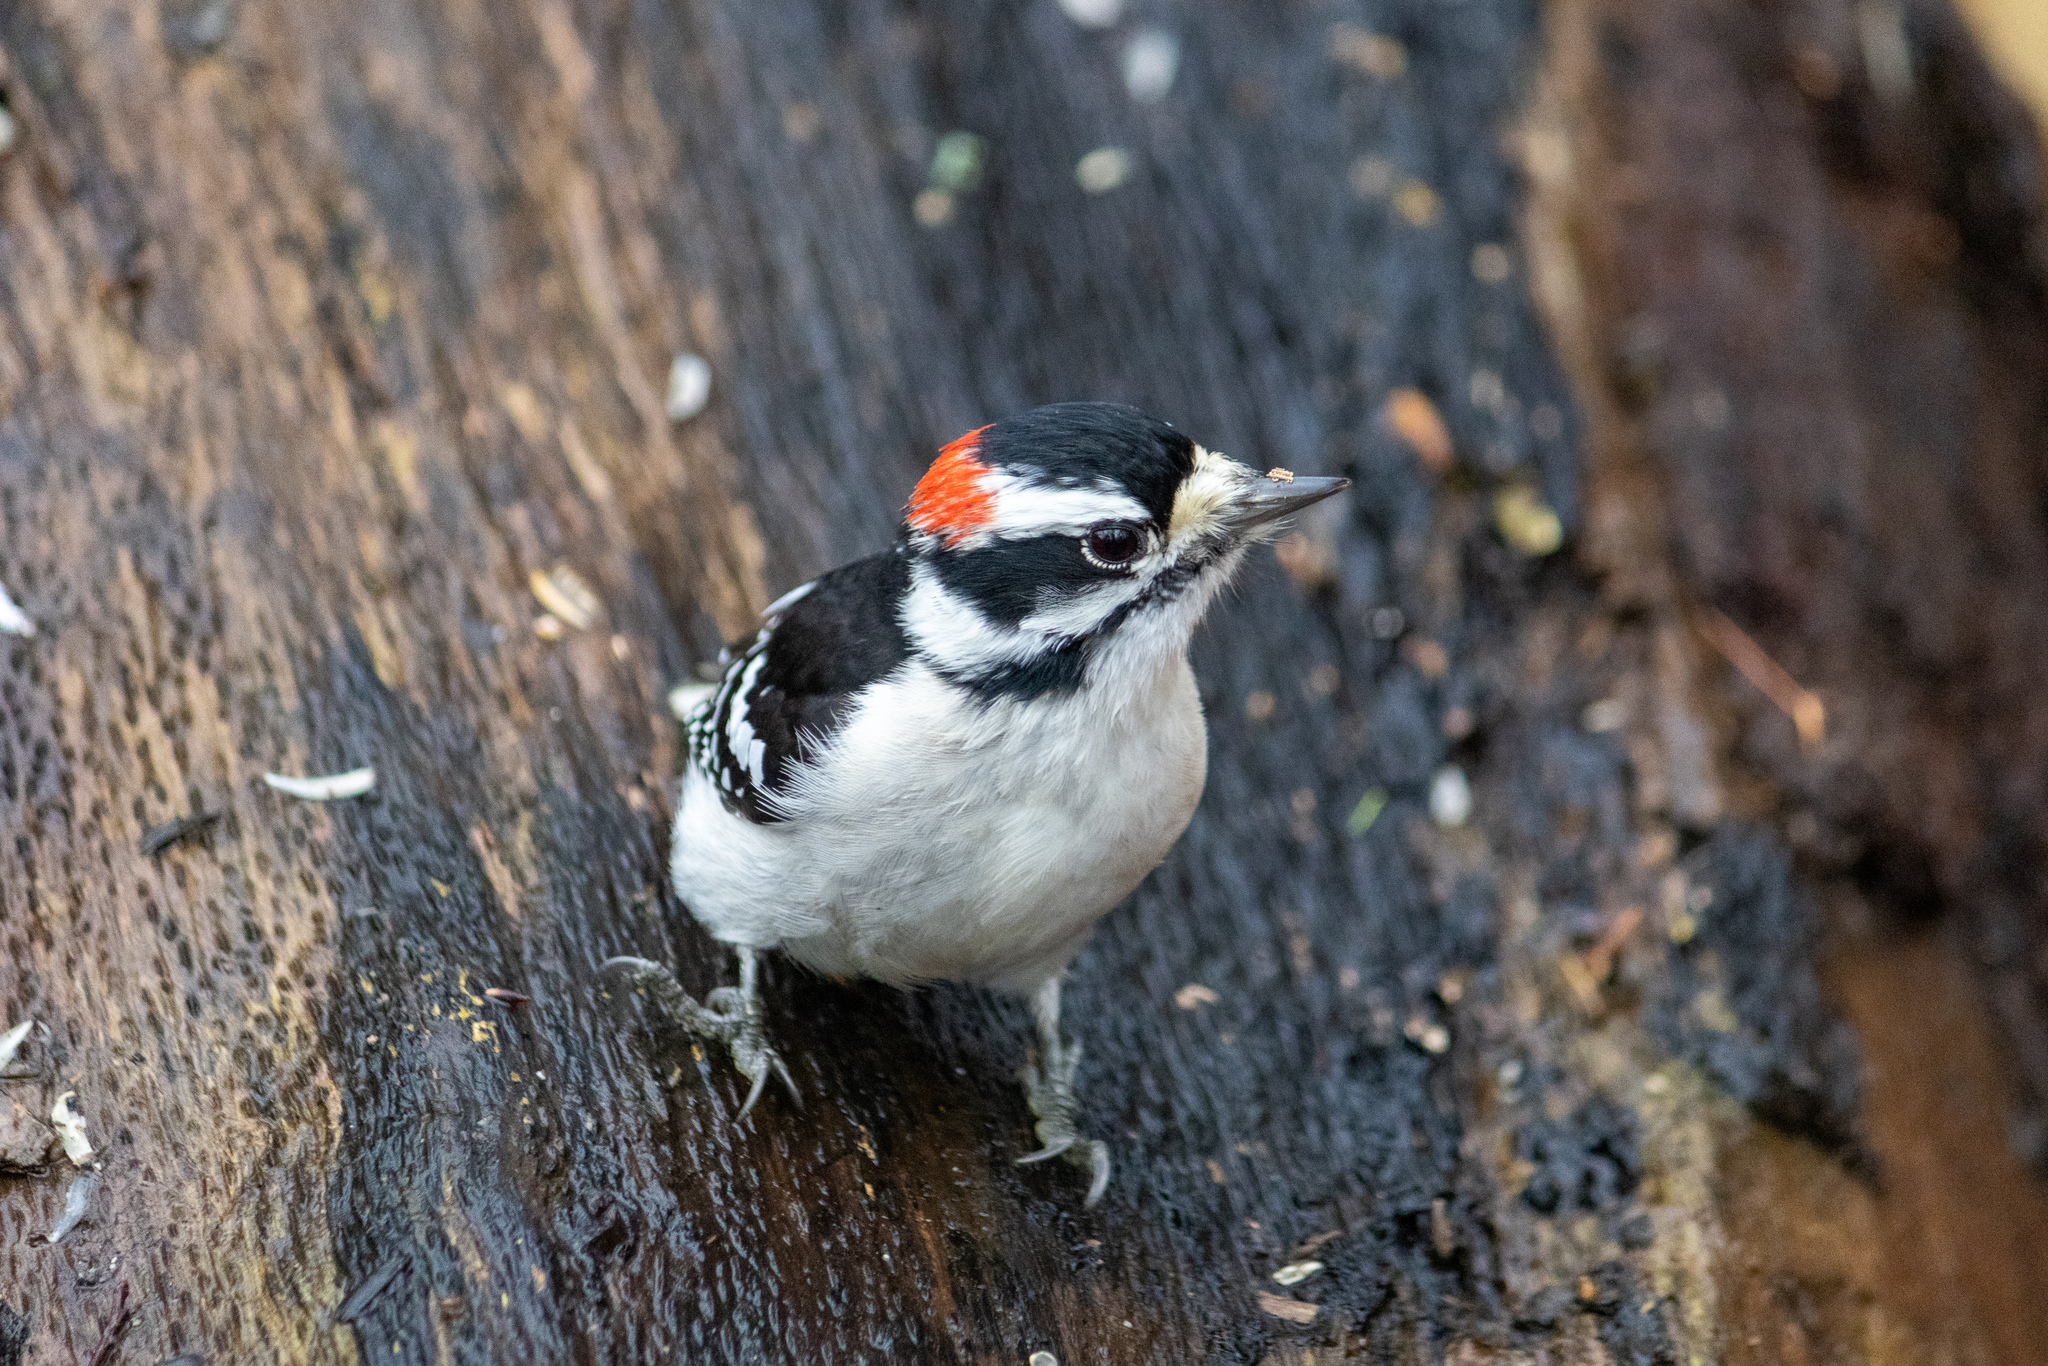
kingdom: Animalia
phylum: Chordata
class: Aves
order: Piciformes
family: Picidae
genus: Dryobates
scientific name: Dryobates pubescens
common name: Downy woodpecker
